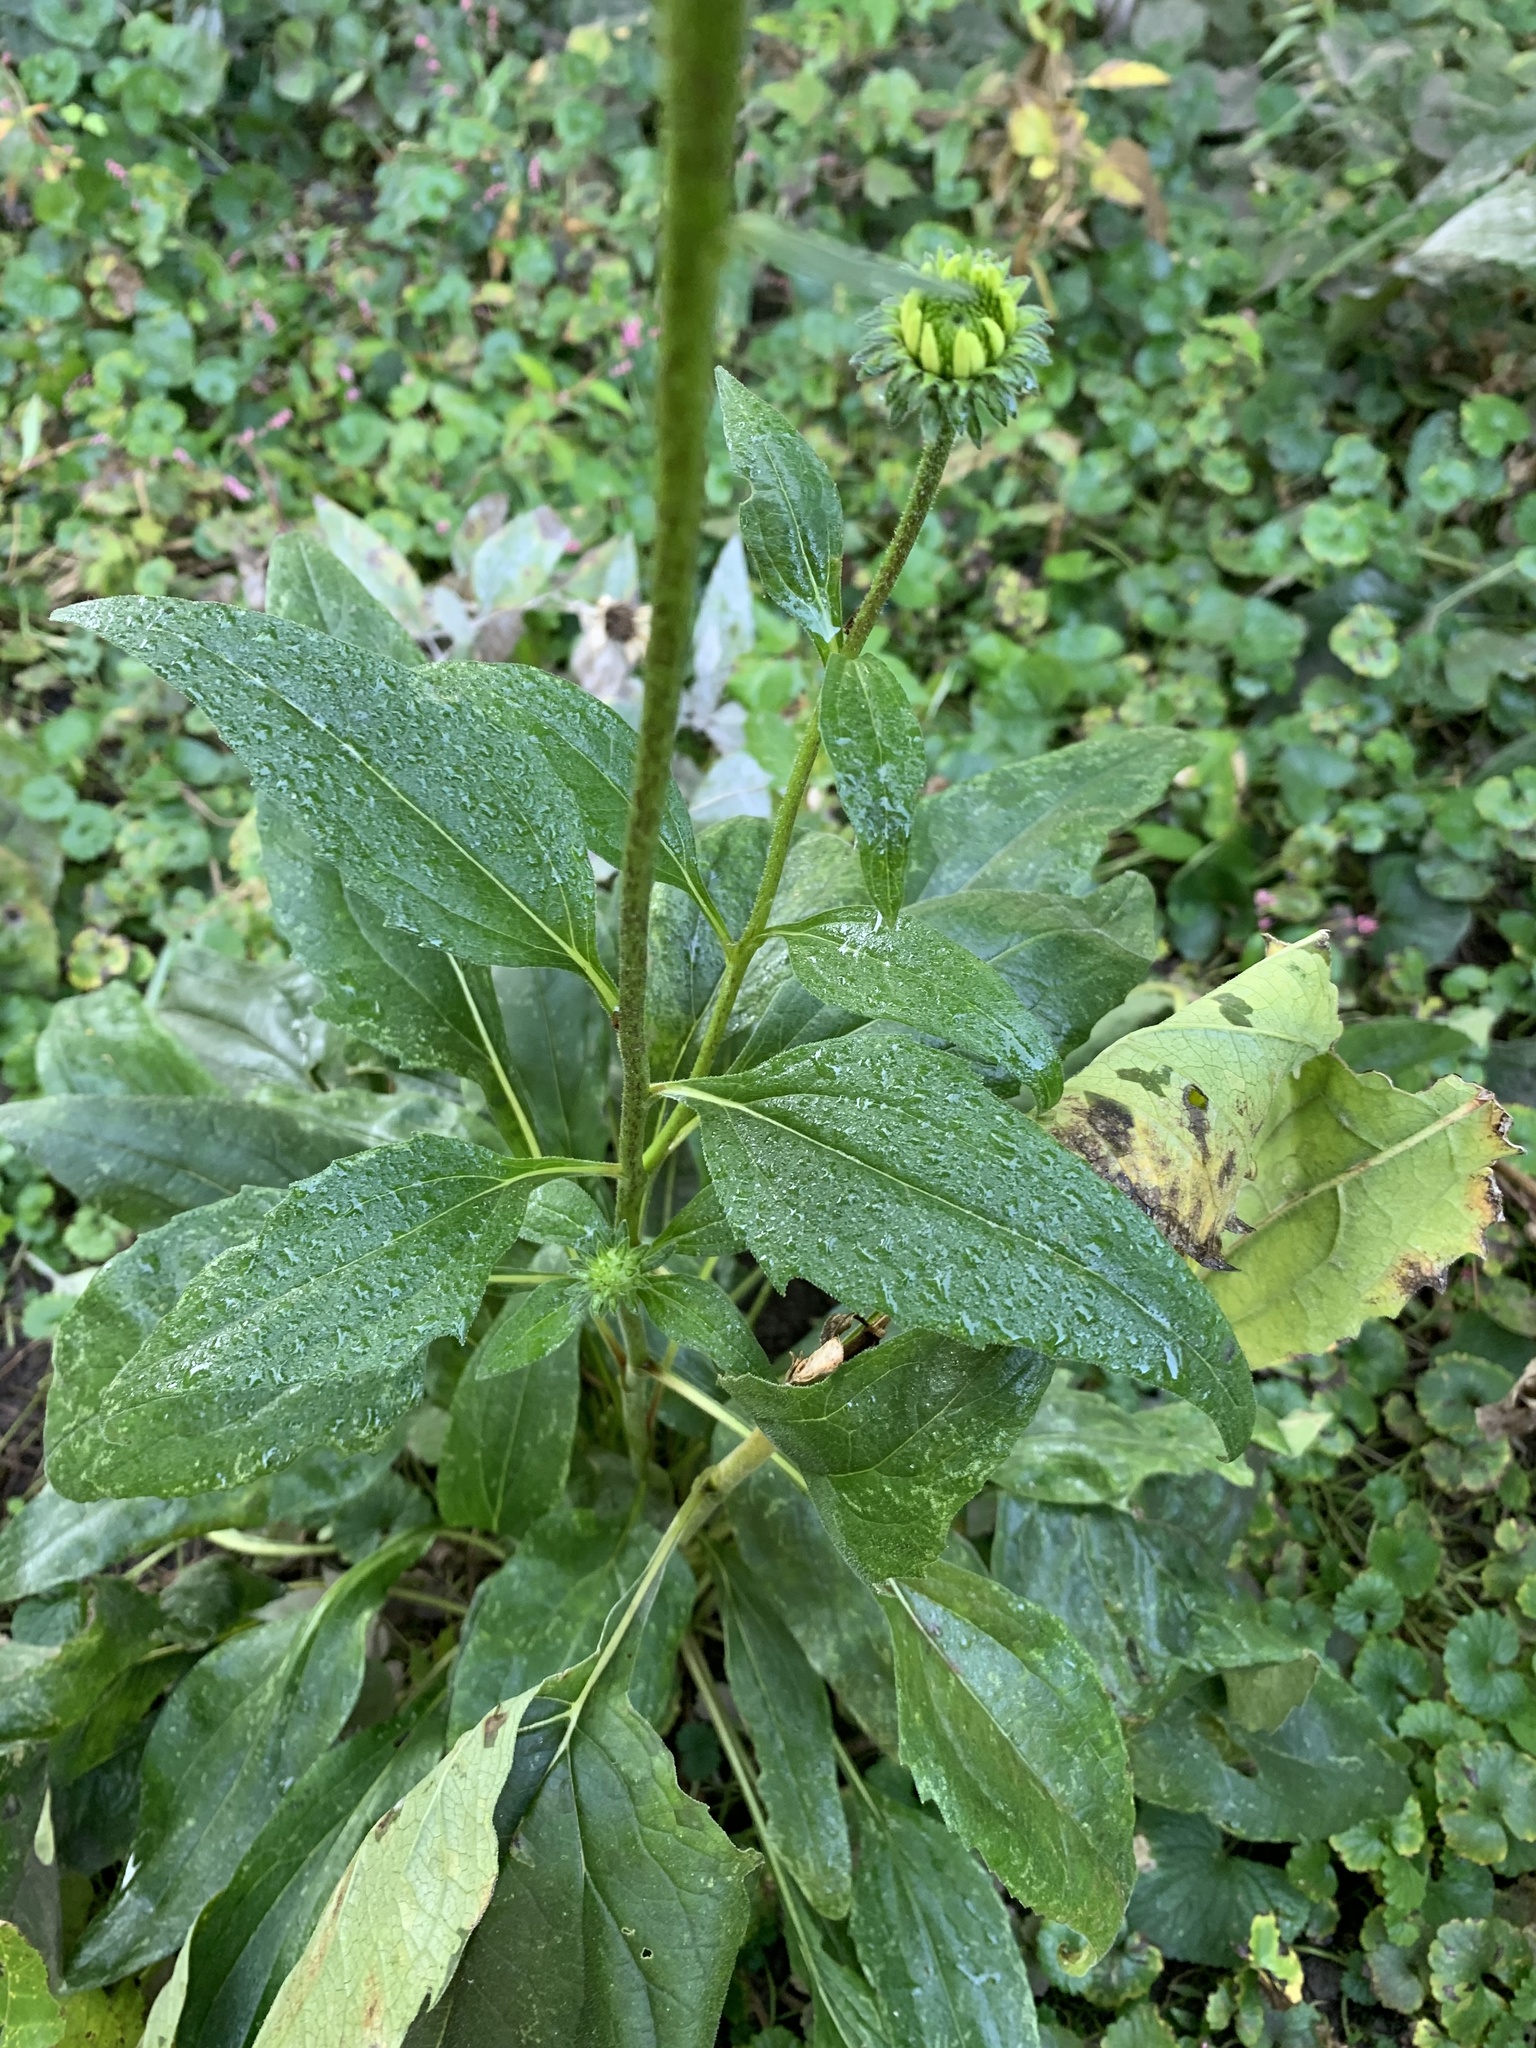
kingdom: Plantae
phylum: Tracheophyta
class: Magnoliopsida
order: Asterales
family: Asteraceae
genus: Echinacea
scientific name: Echinacea purpurea
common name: Broad-leaved purple coneflower
